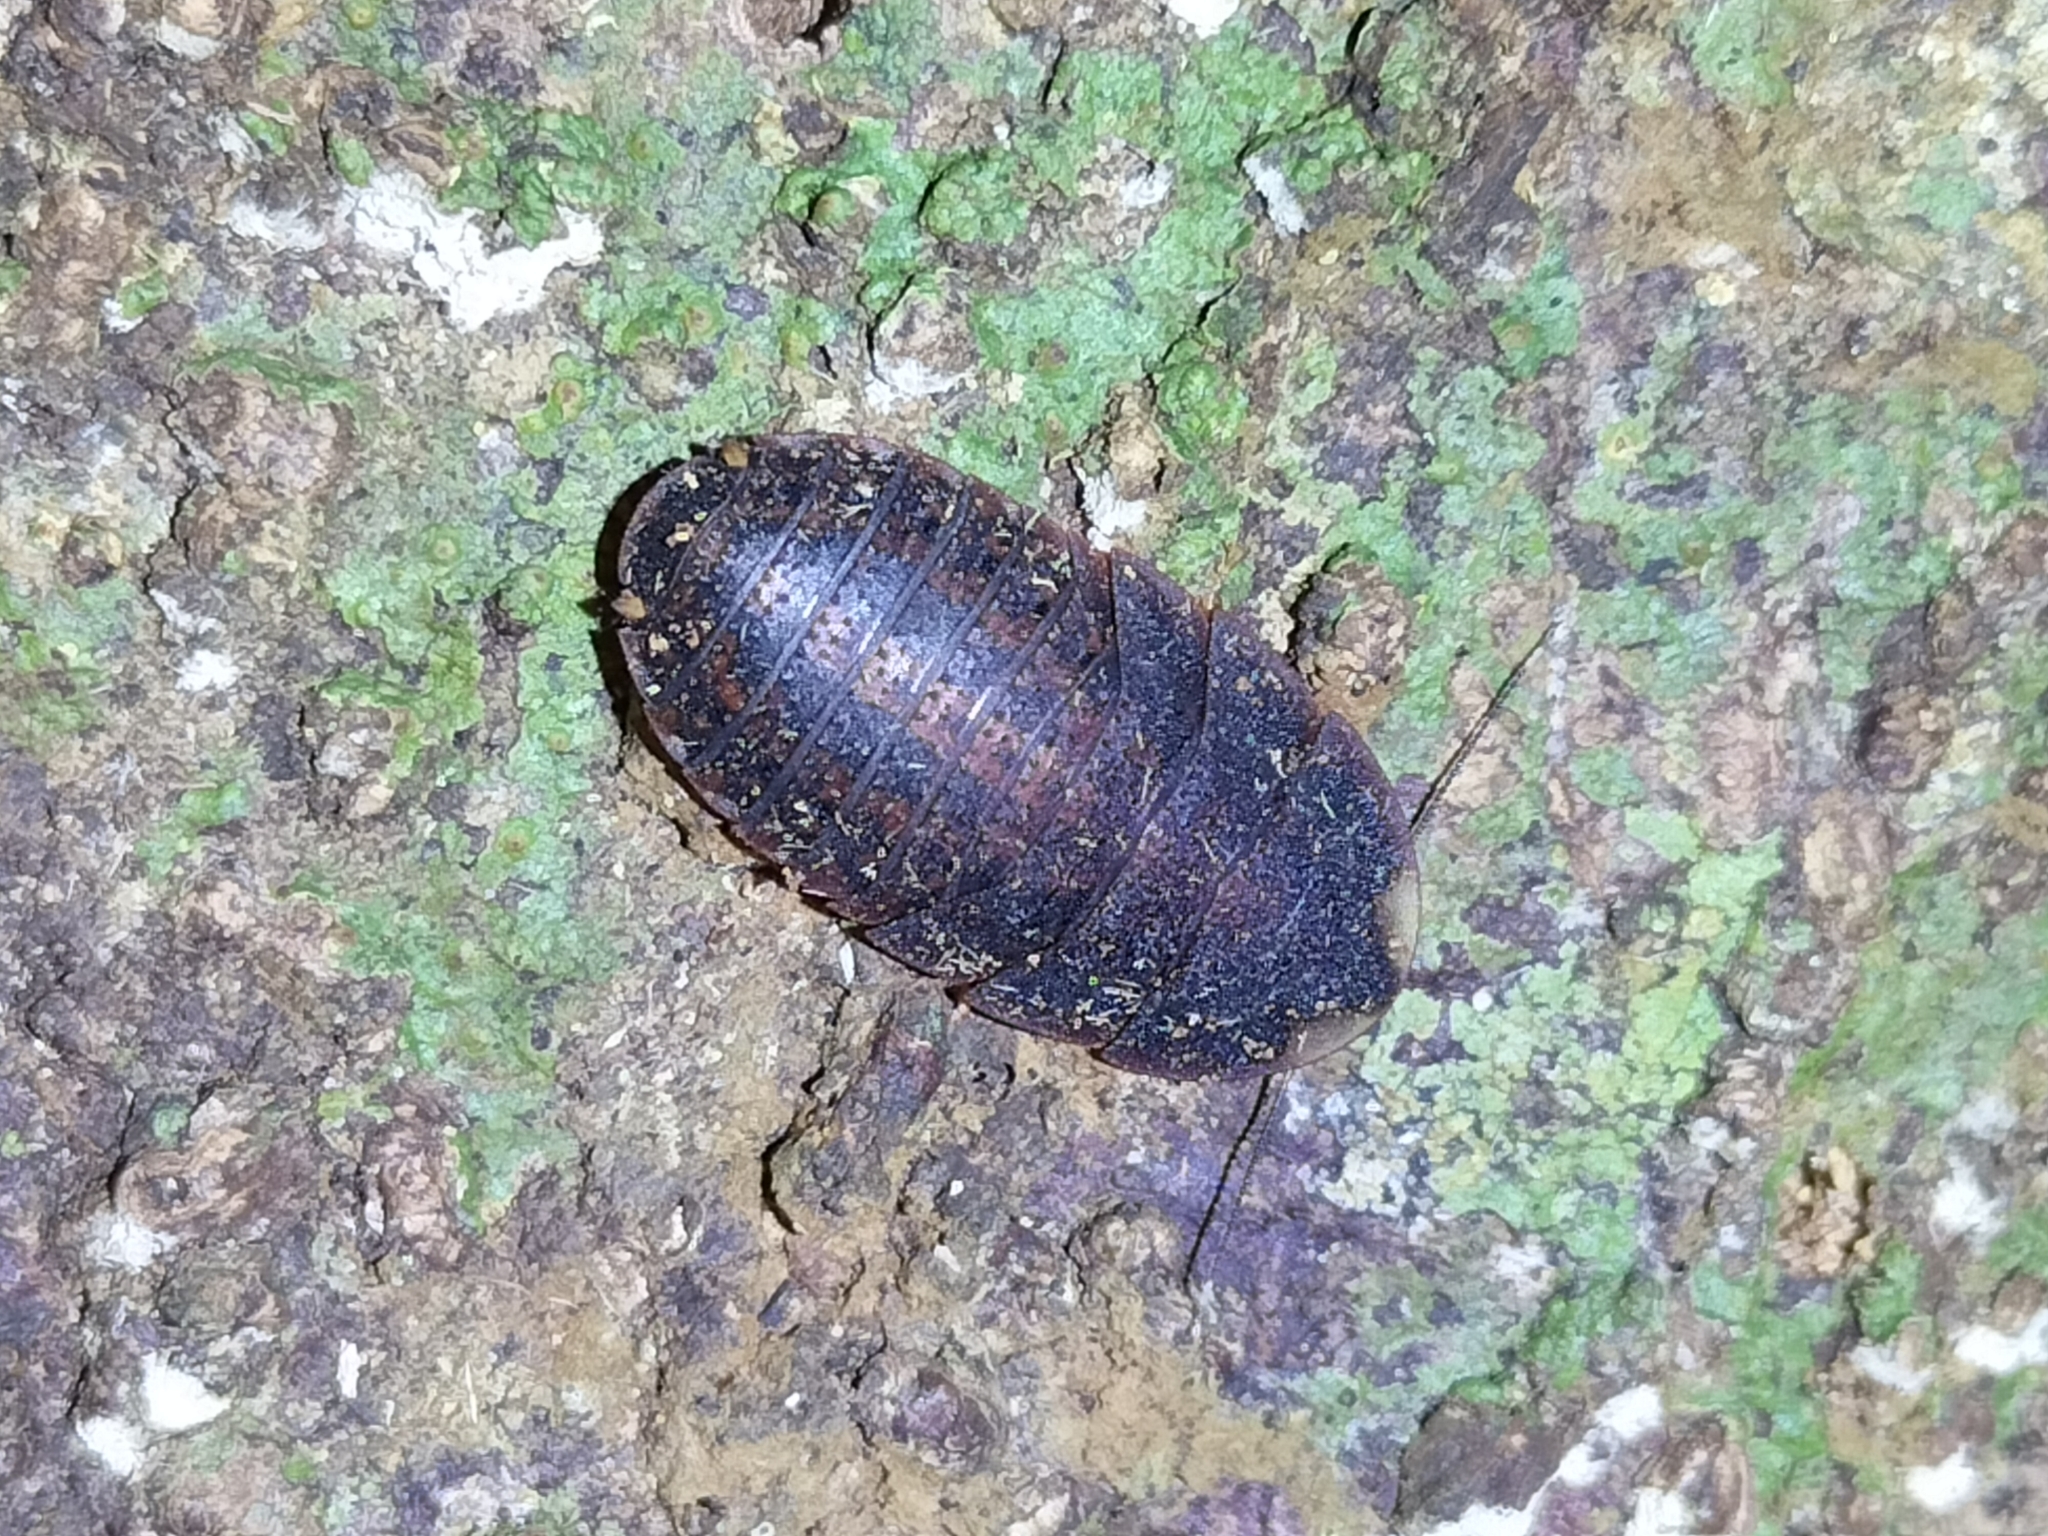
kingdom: Animalia
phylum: Arthropoda
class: Insecta
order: Blattodea
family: Blaberidae
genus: Neolaxta
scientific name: Neolaxta mackerrasae
